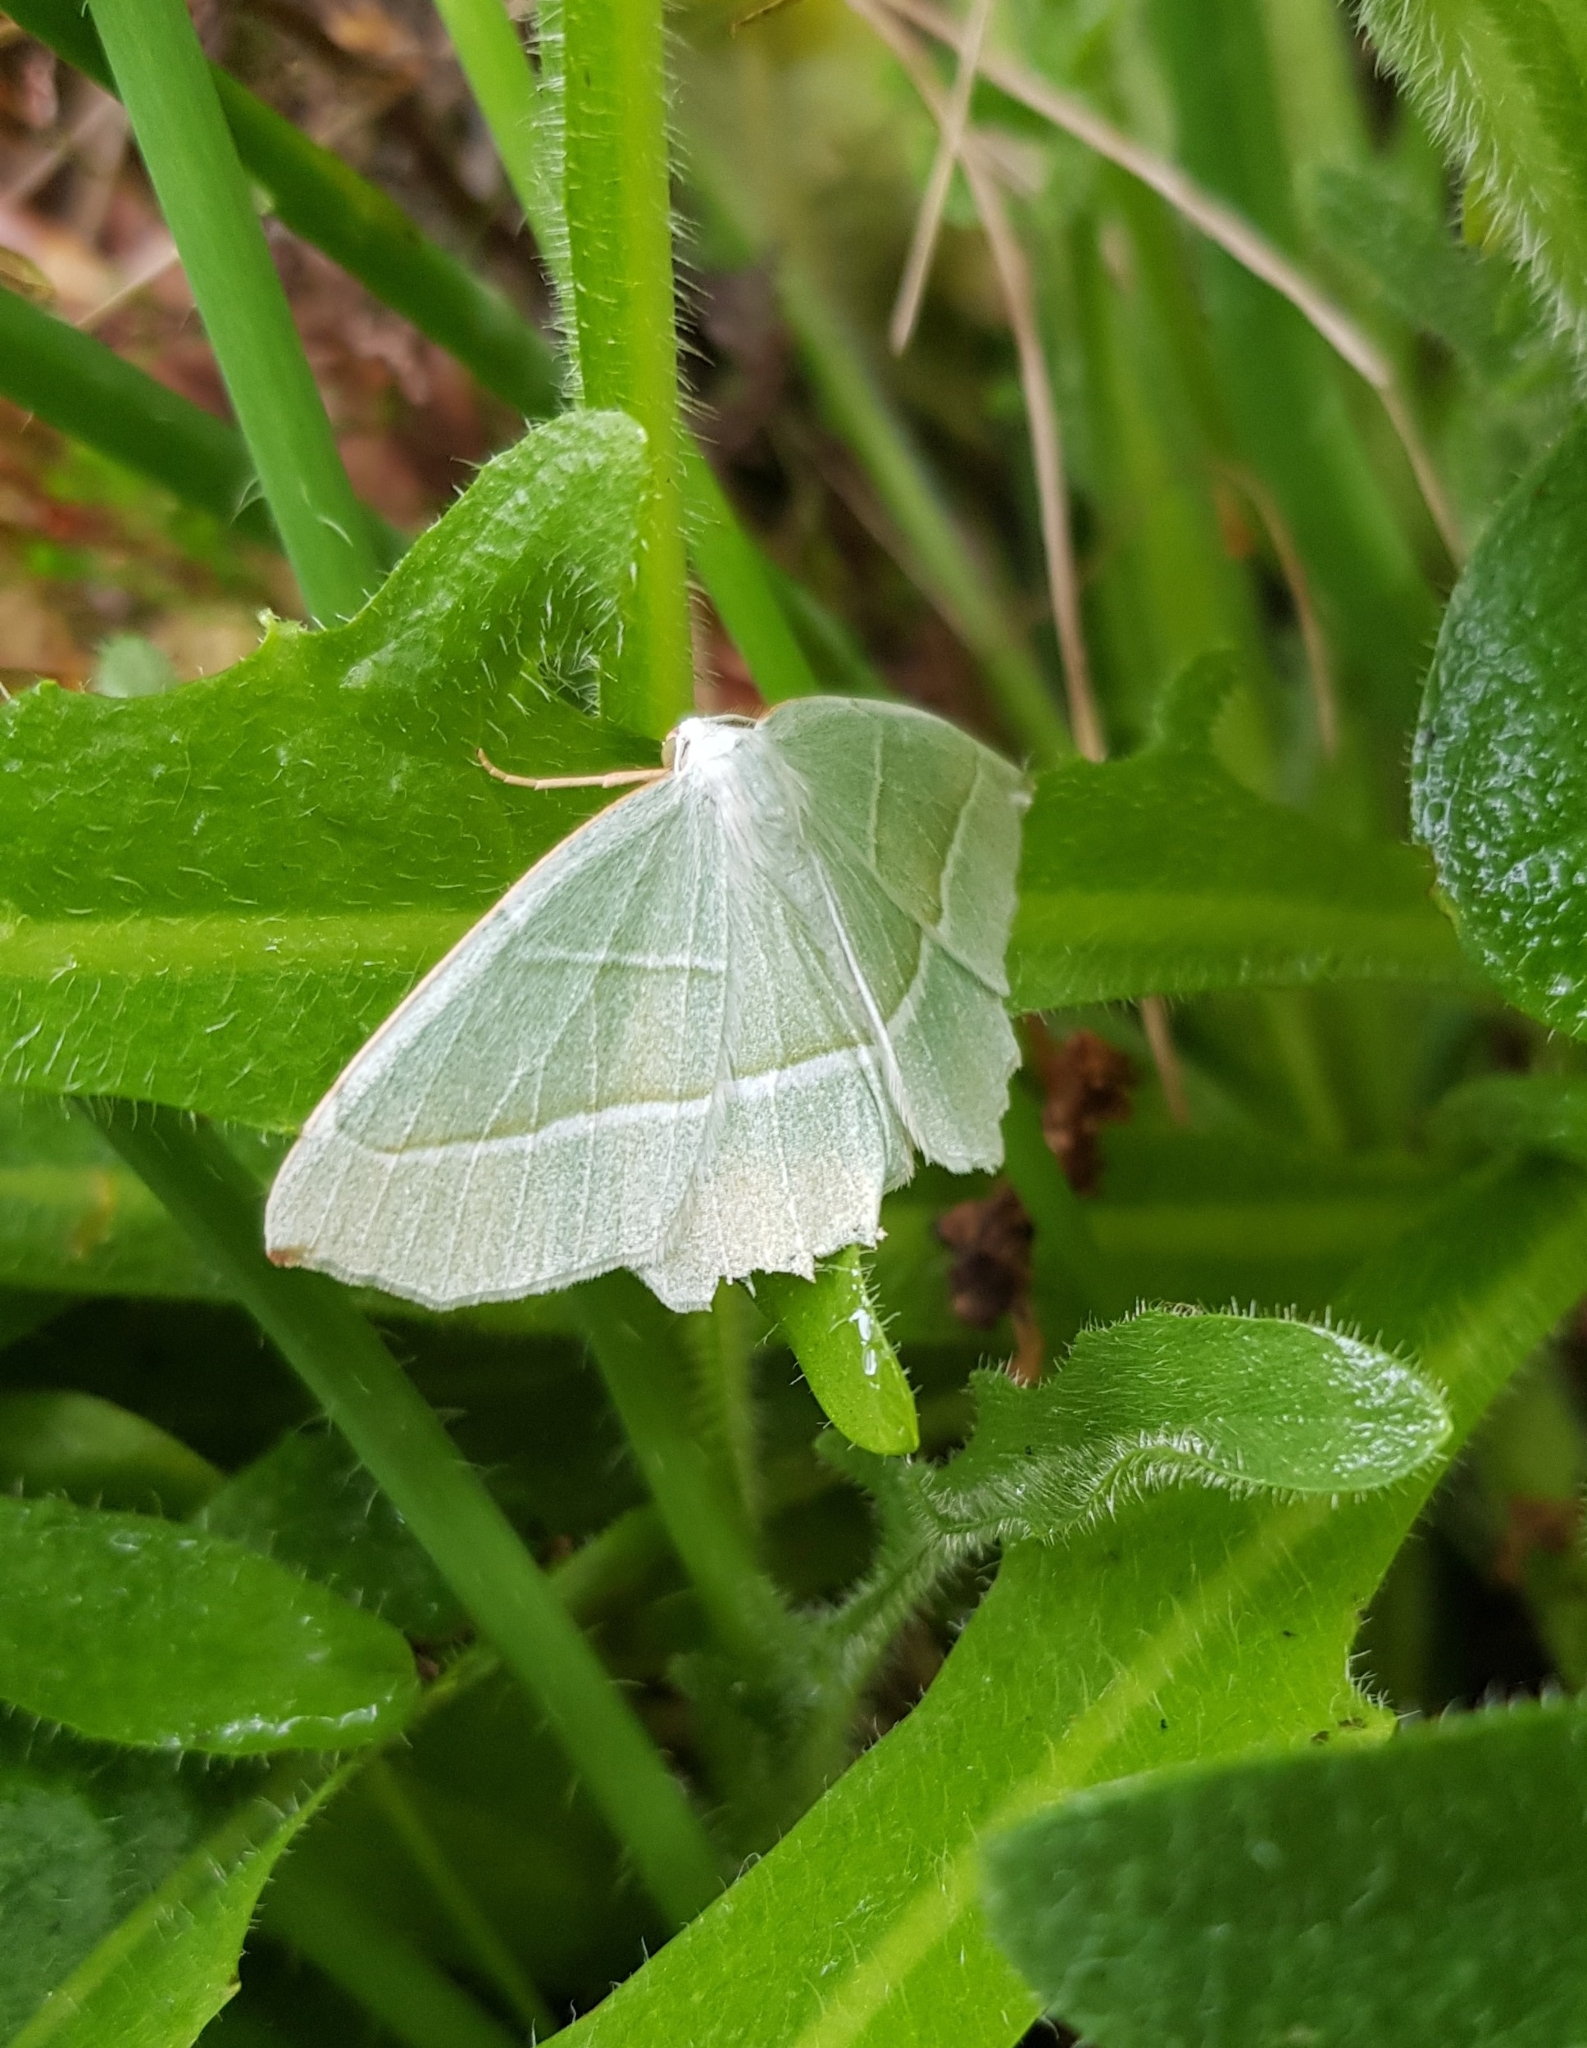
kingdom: Animalia
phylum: Arthropoda
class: Insecta
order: Lepidoptera
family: Geometridae
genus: Campaea
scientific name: Campaea margaritaria
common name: Light emerald
